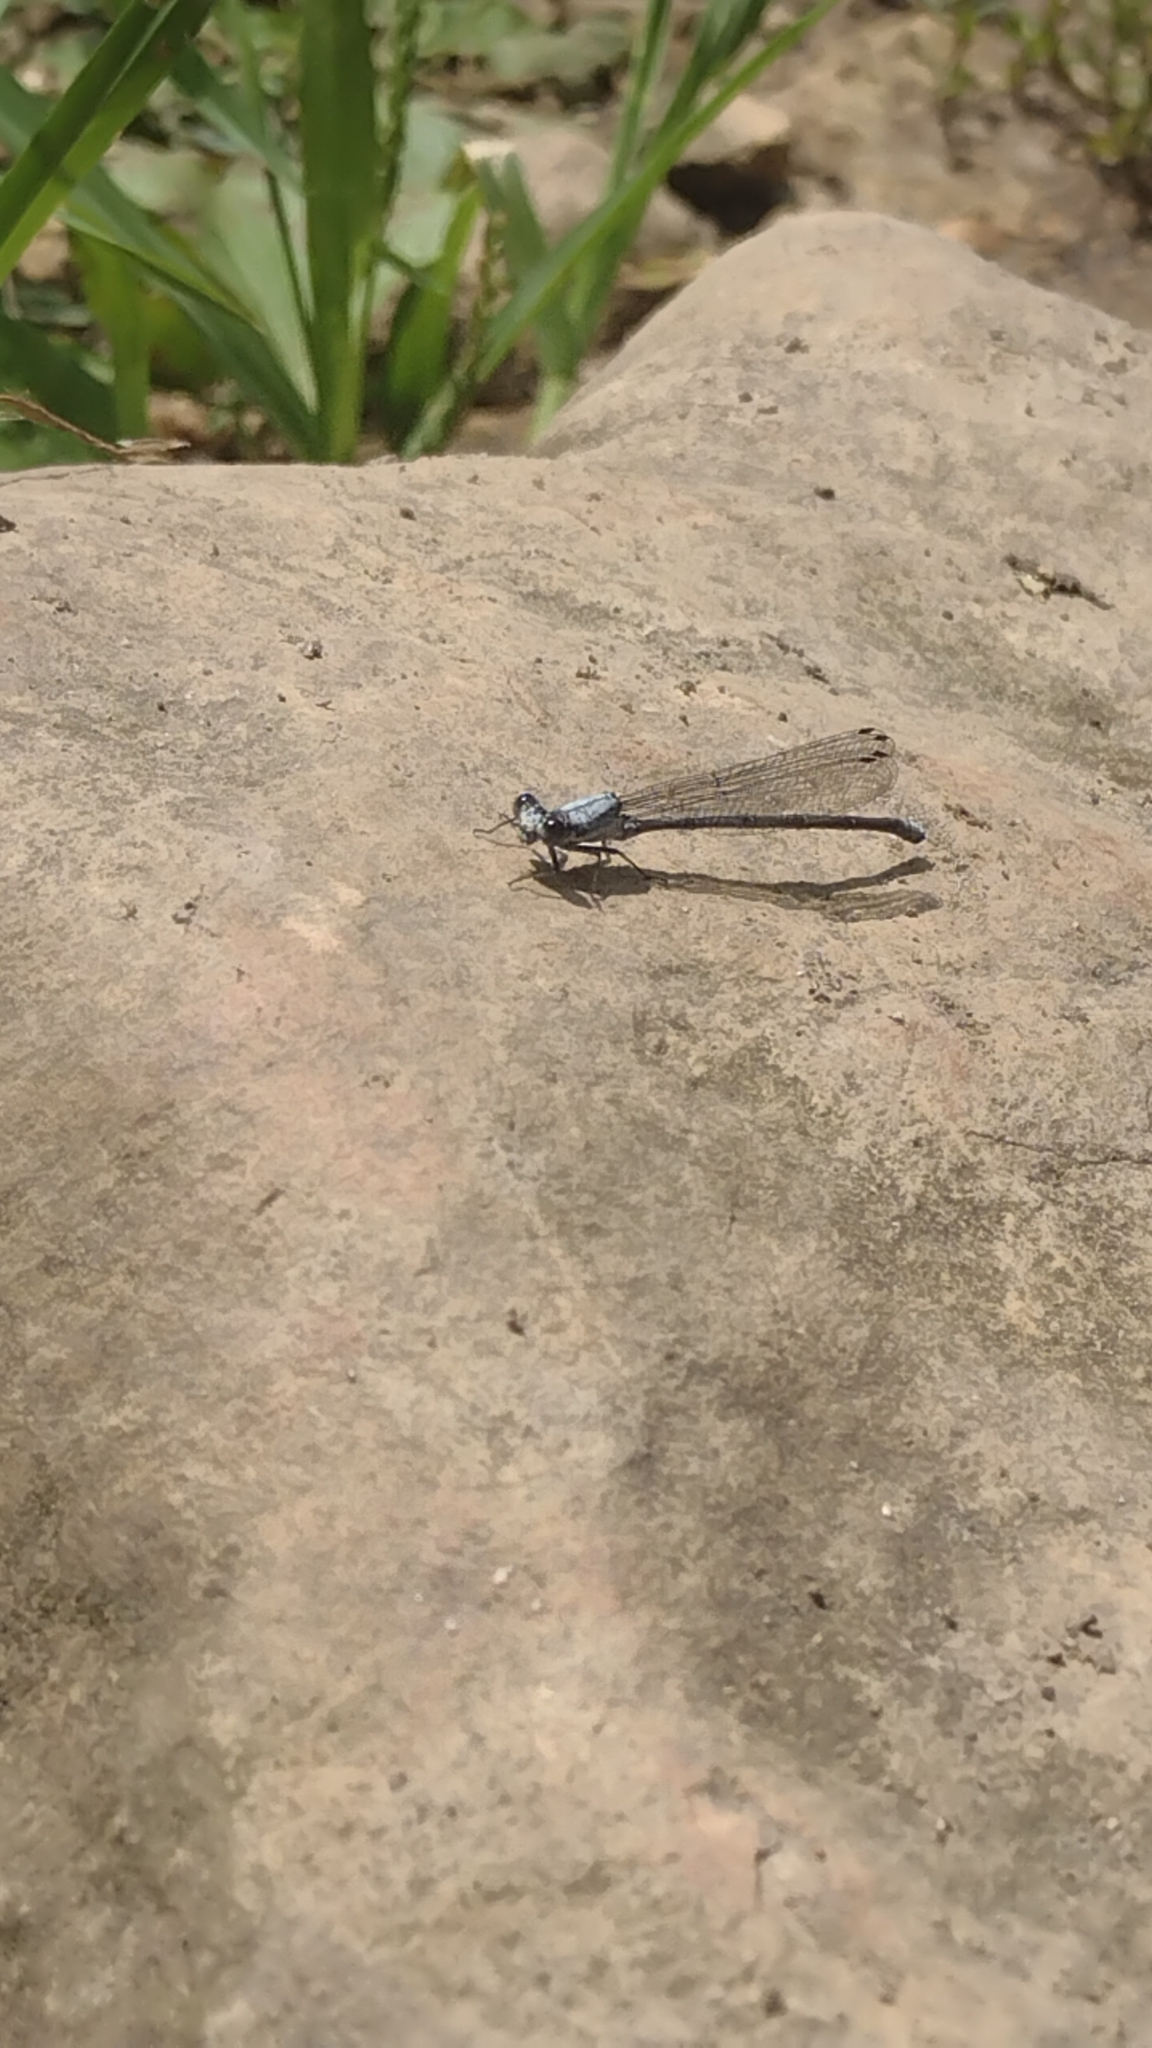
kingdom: Animalia
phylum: Arthropoda
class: Insecta
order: Odonata
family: Coenagrionidae
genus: Argia
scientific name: Argia moesta
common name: Powdered dancer
